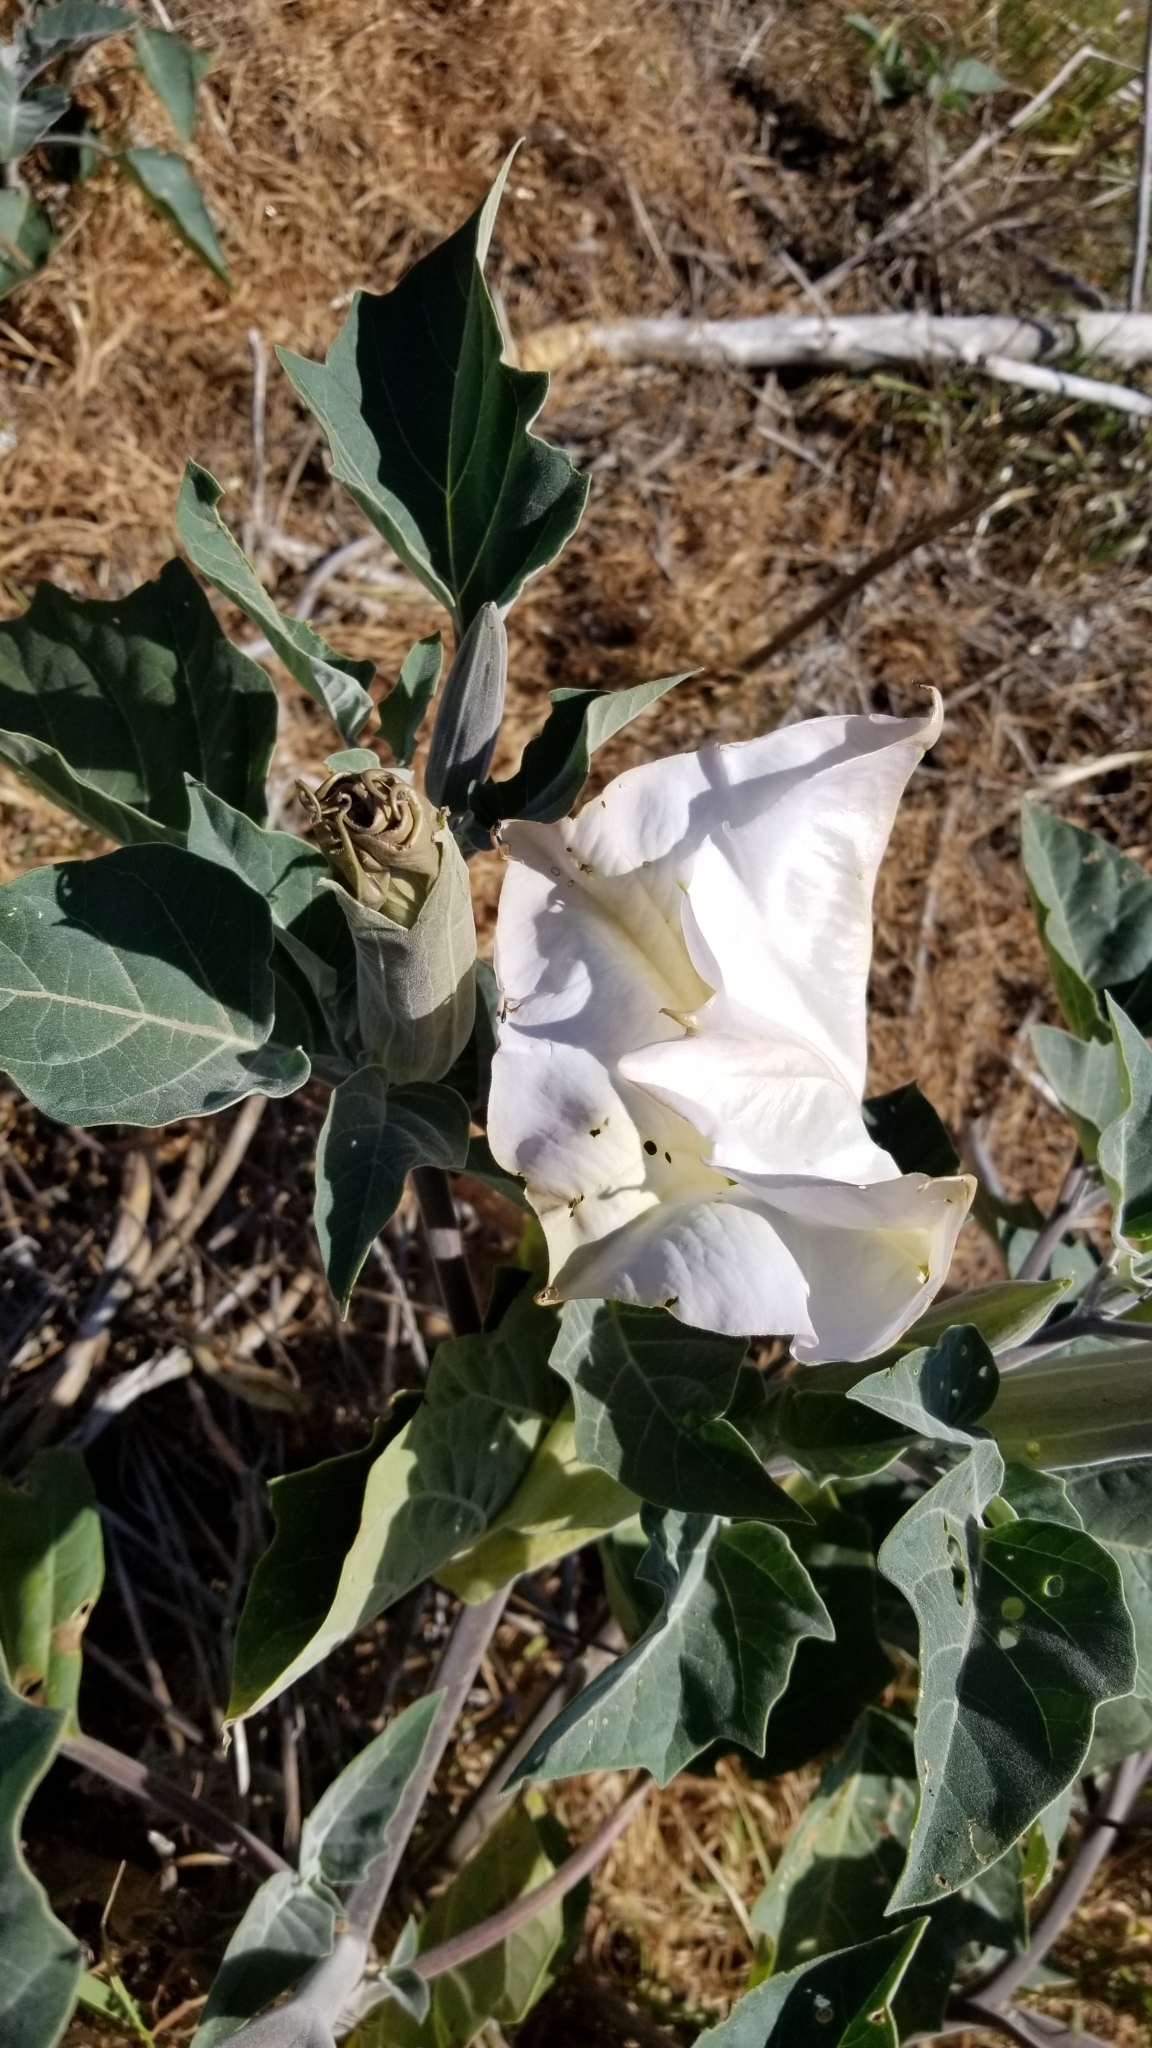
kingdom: Plantae
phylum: Tracheophyta
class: Magnoliopsida
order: Solanales
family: Solanaceae
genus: Datura
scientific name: Datura wrightii
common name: Sacred thorn-apple
